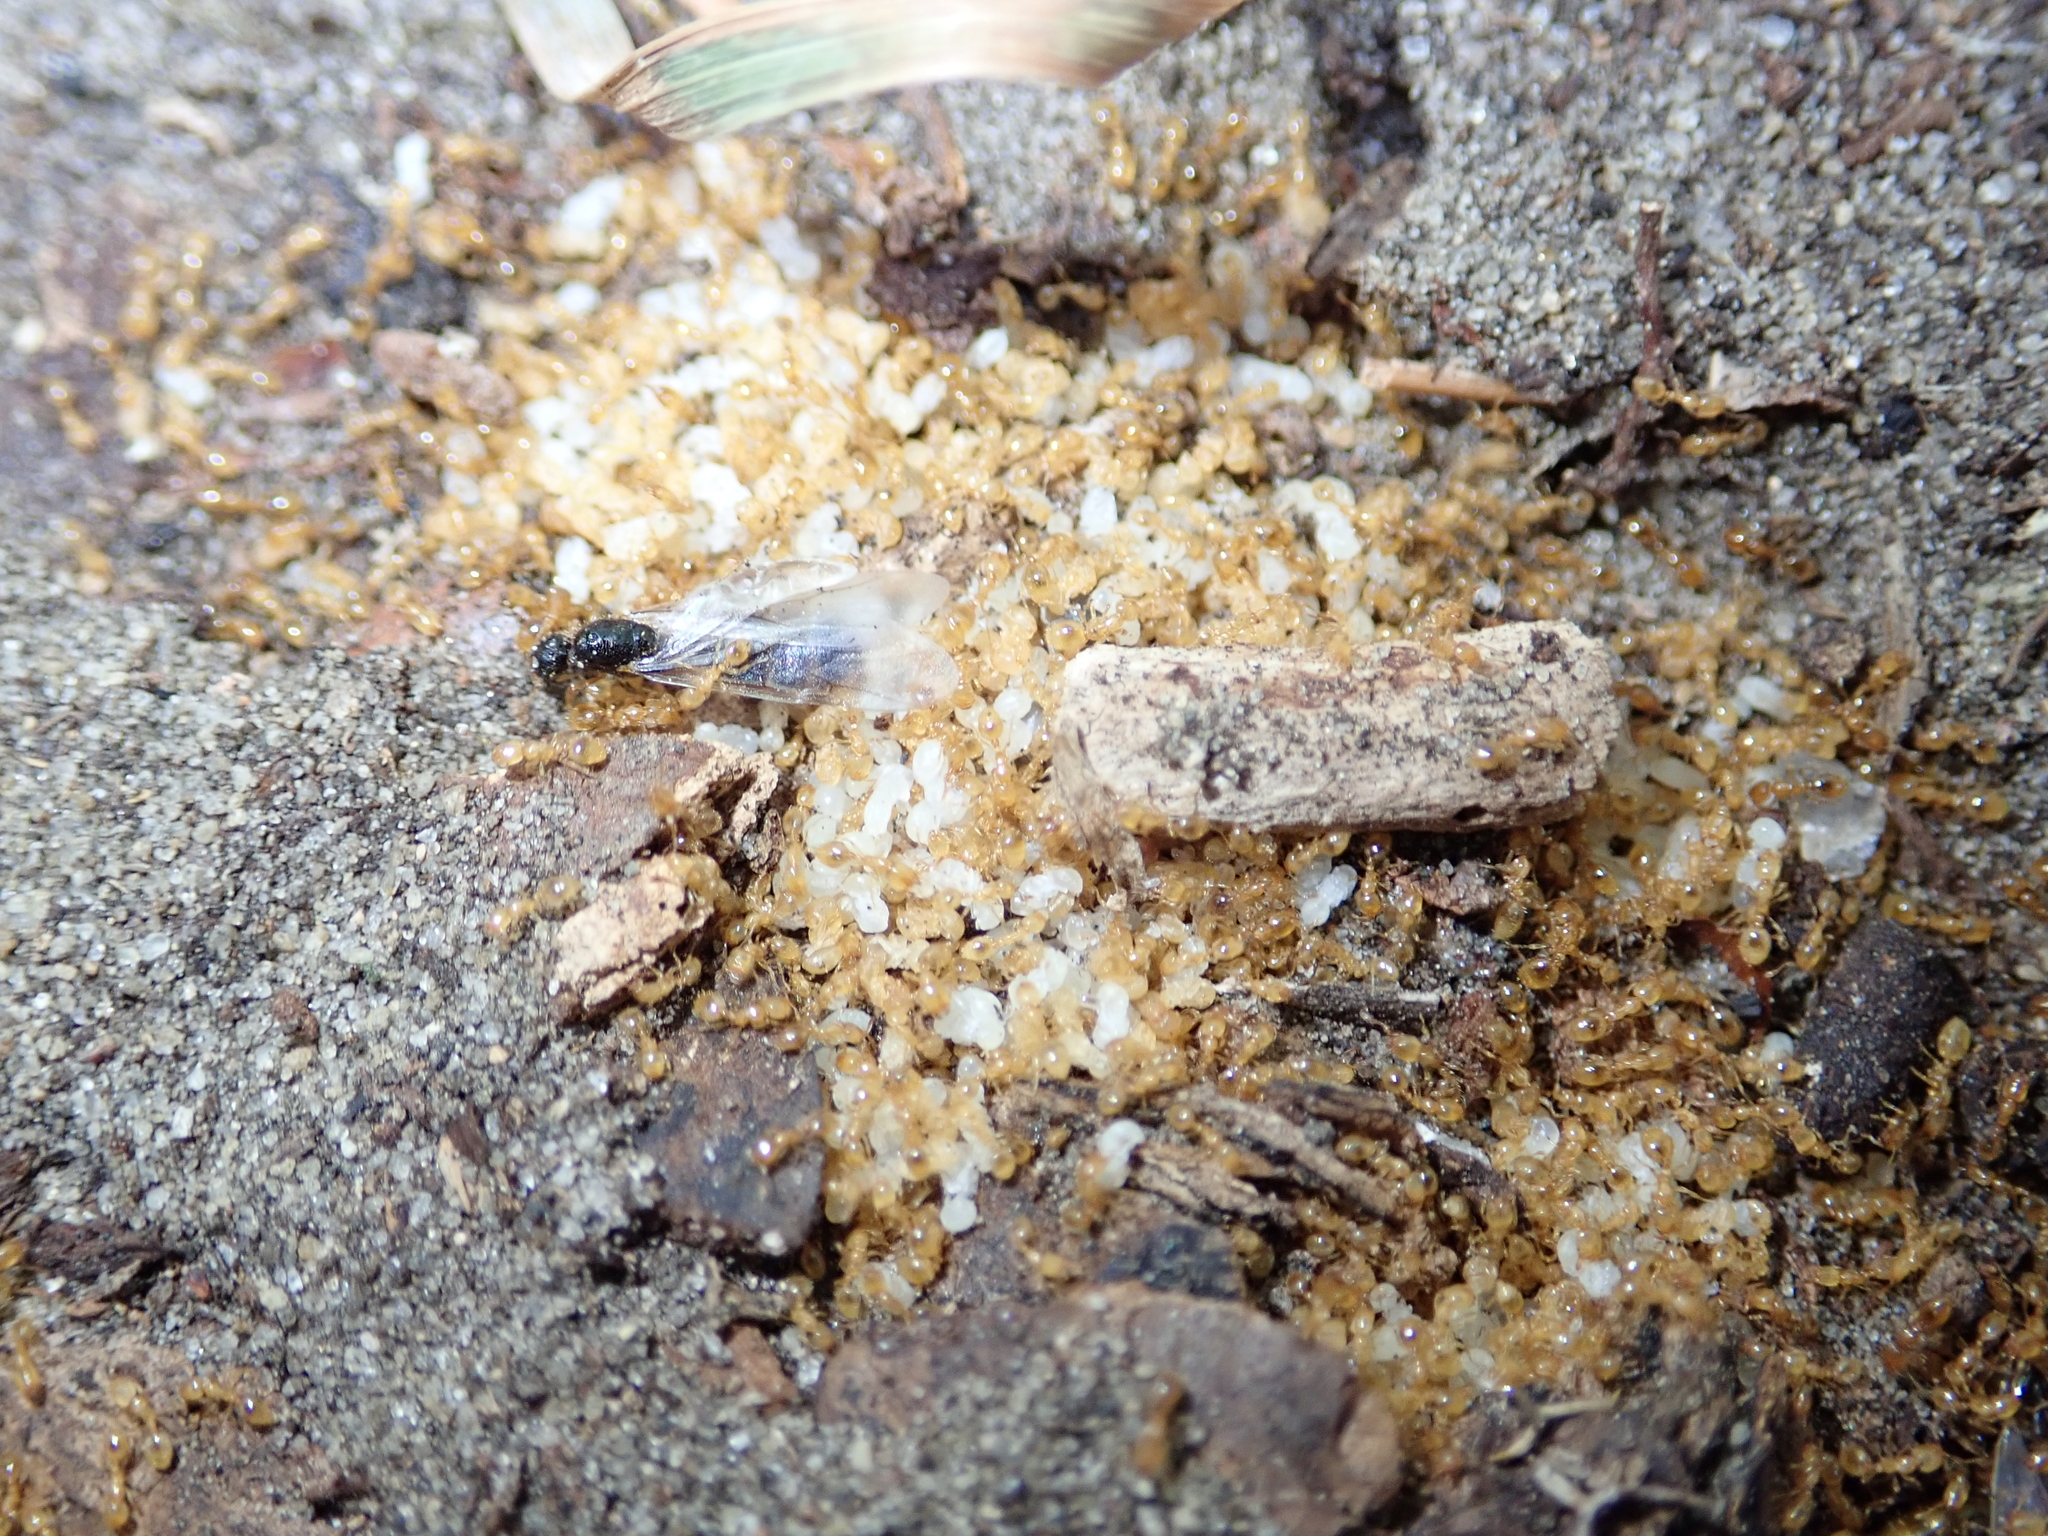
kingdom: Animalia
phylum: Arthropoda
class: Insecta
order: Hymenoptera
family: Formicidae
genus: Solenopsis
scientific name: Solenopsis fugax
